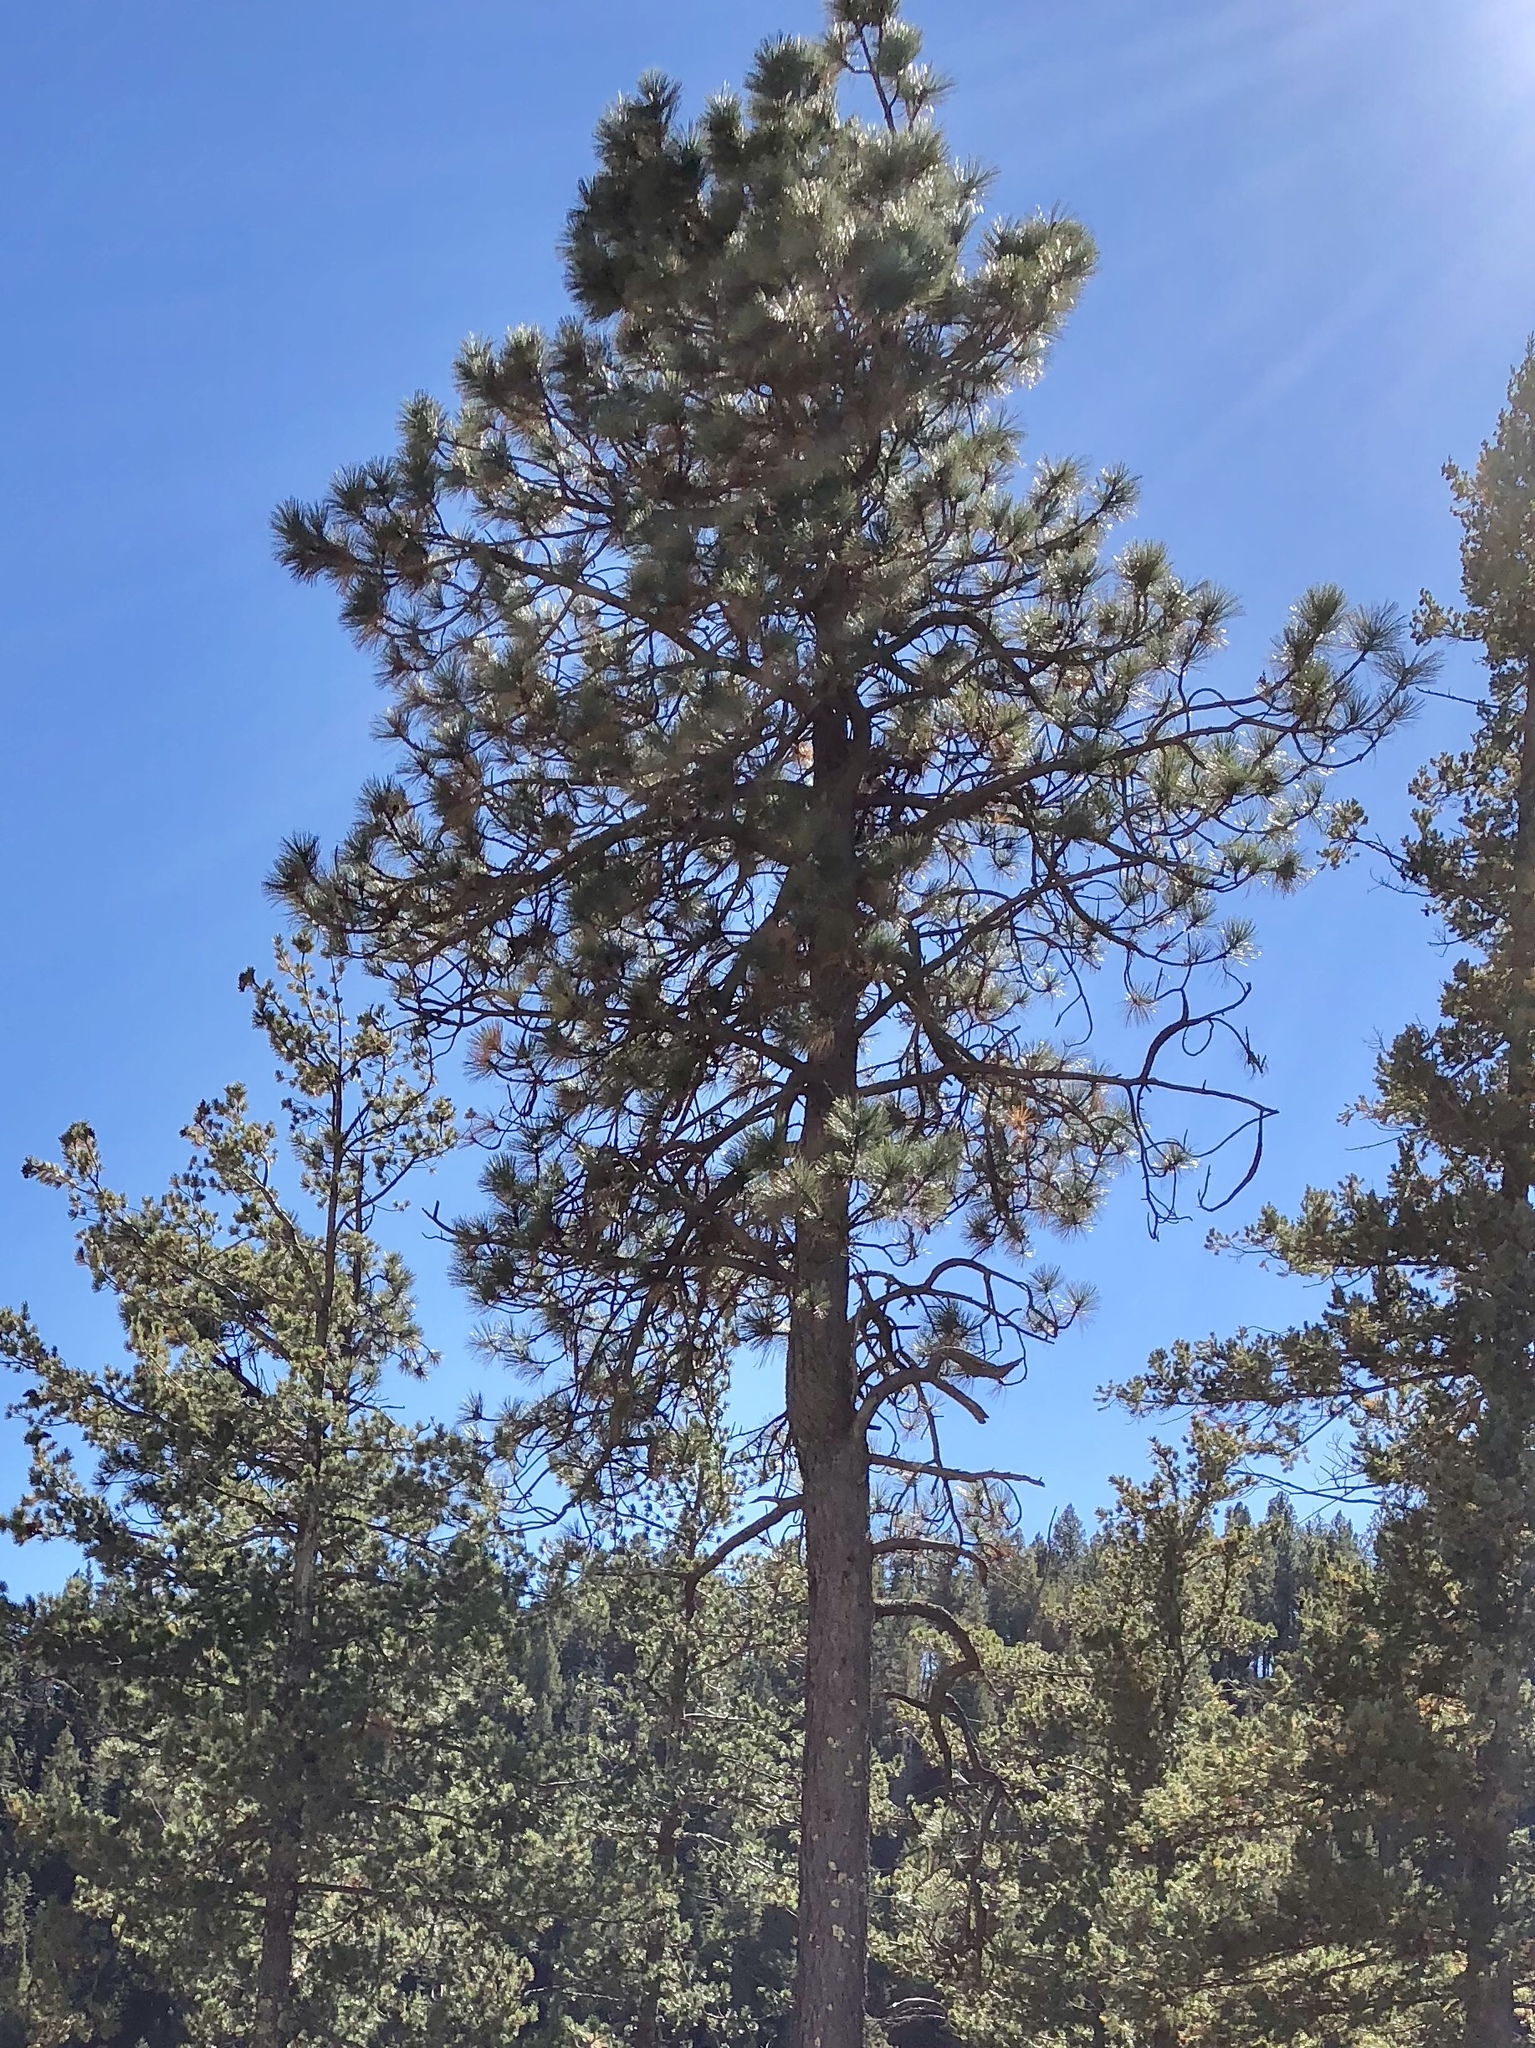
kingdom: Plantae
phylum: Tracheophyta
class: Pinopsida
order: Pinales
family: Pinaceae
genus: Pinus
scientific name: Pinus ponderosa
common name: Western yellow-pine
